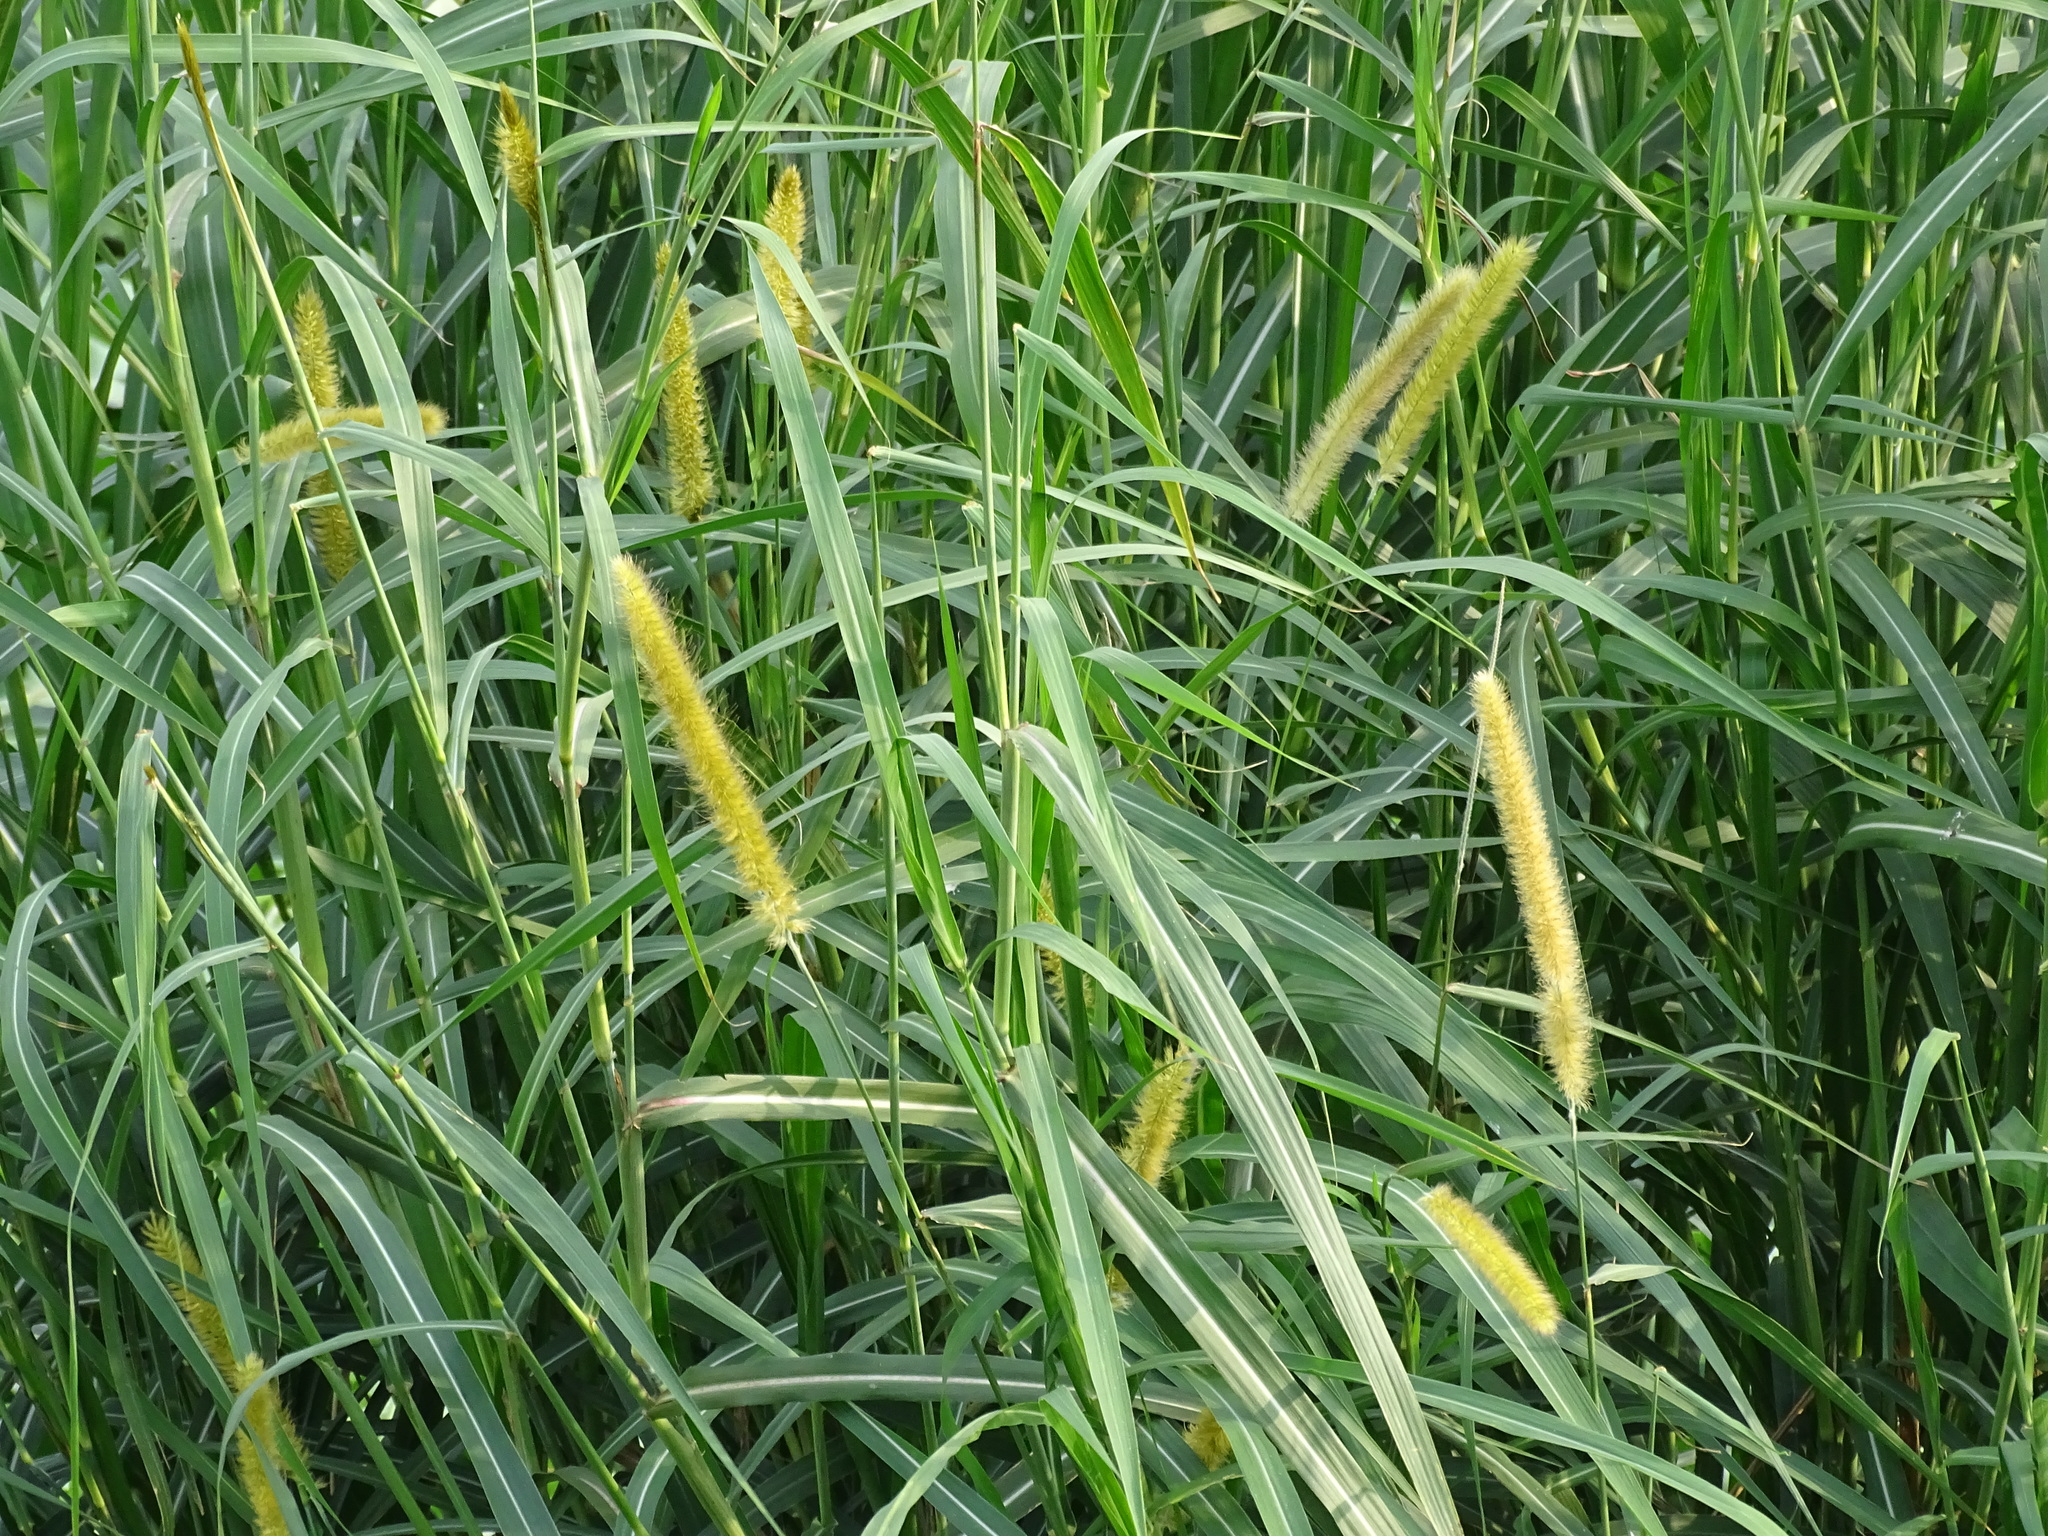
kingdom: Plantae
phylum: Tracheophyta
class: Liliopsida
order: Poales
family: Poaceae
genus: Cenchrus
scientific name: Cenchrus purpureus
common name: Elephant grass
